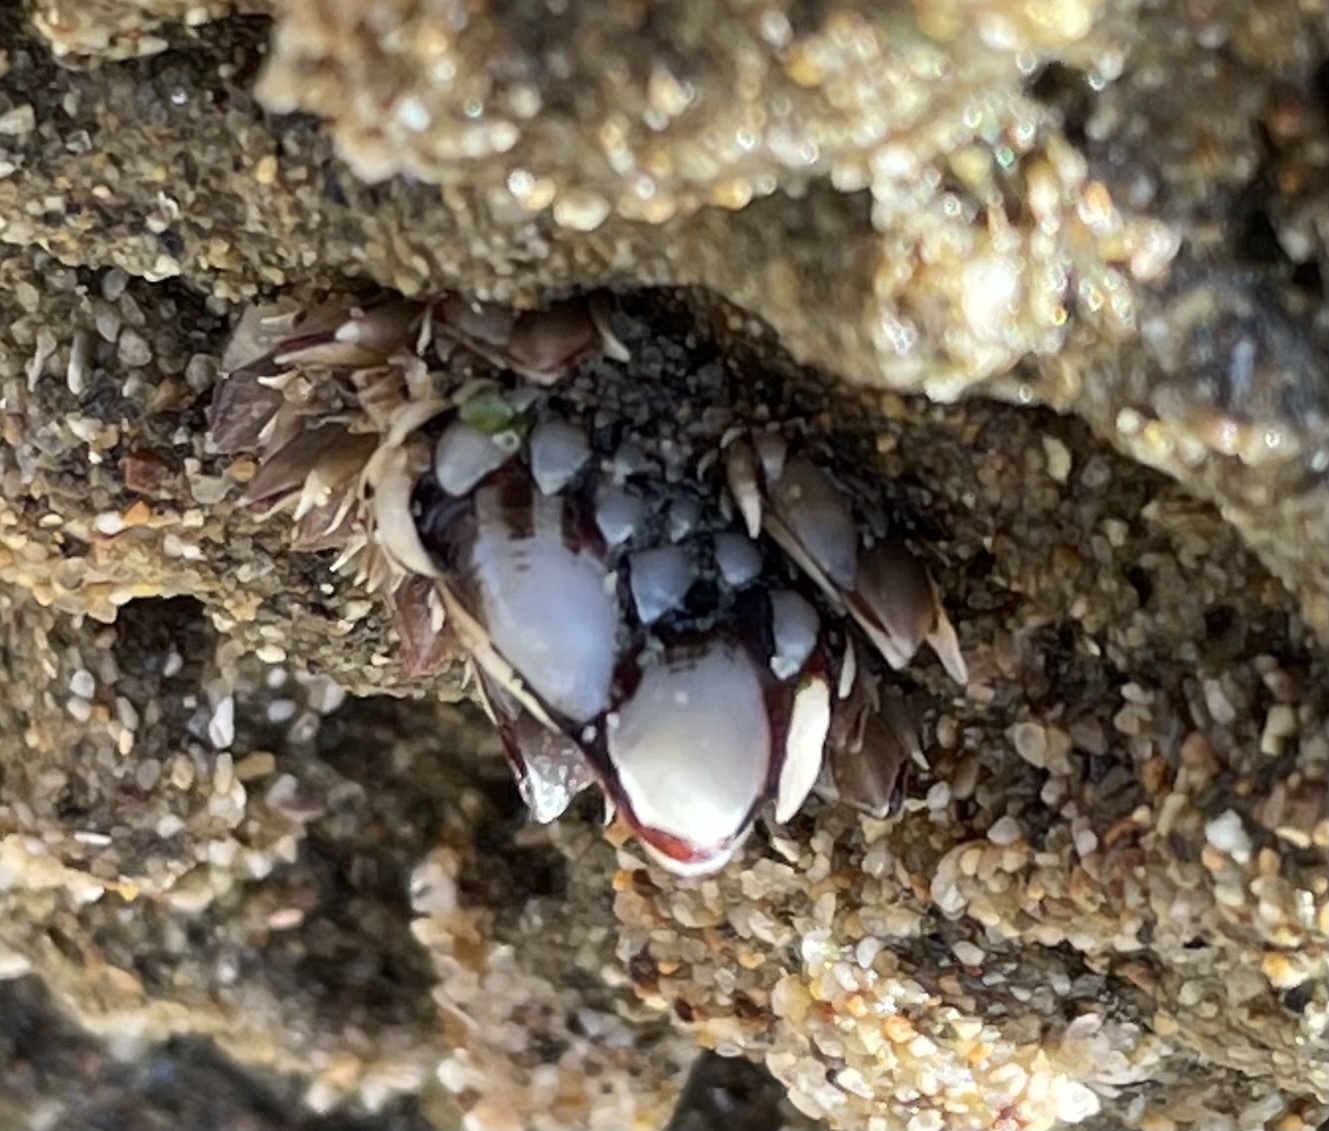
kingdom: Animalia
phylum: Arthropoda
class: Maxillopoda
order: Pedunculata
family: Pollicipedidae
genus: Pollicipes
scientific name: Pollicipes polymerus
